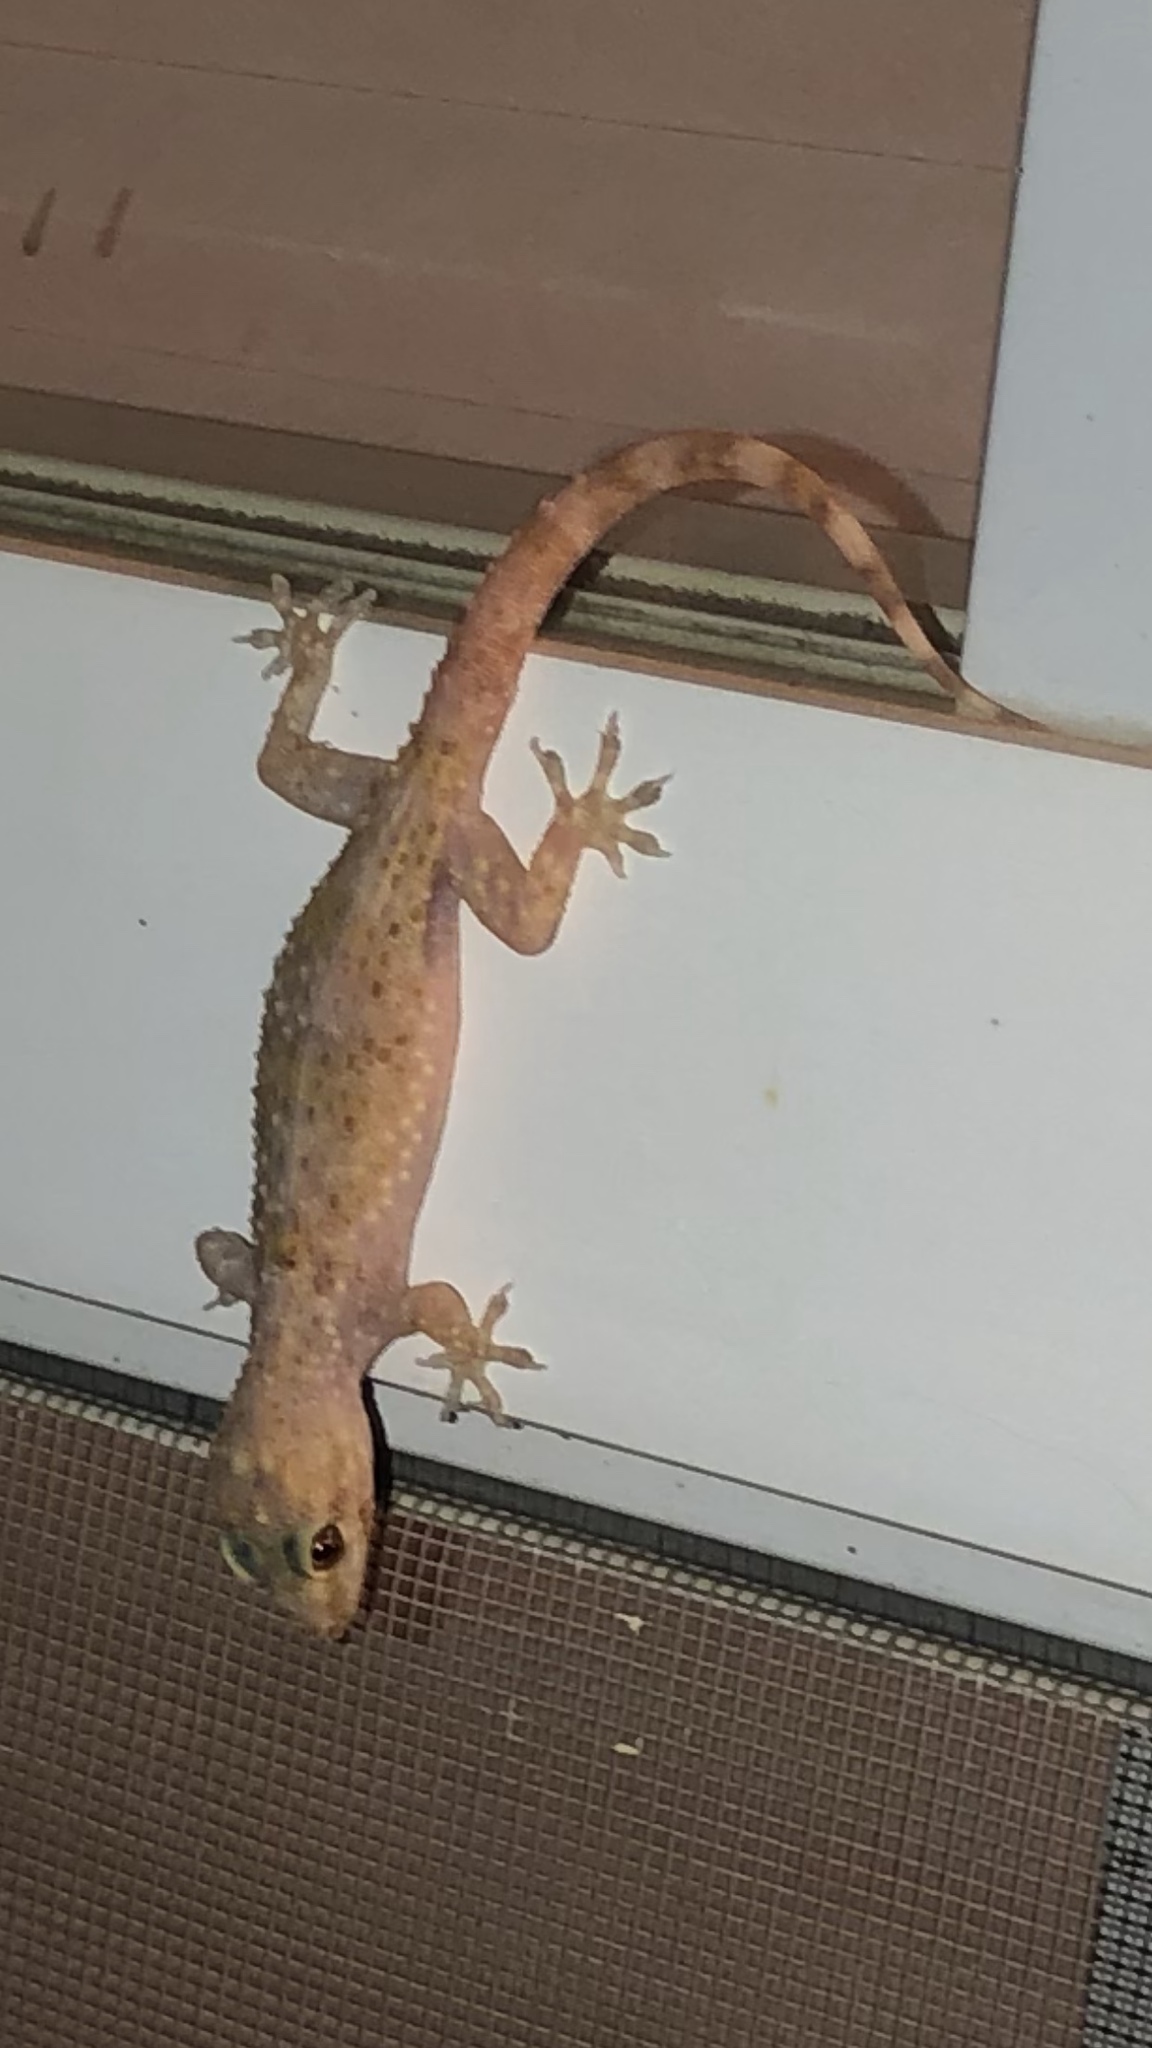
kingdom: Animalia
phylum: Chordata
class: Squamata
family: Gekkonidae
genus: Hemidactylus
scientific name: Hemidactylus turcicus
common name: Turkish gecko
